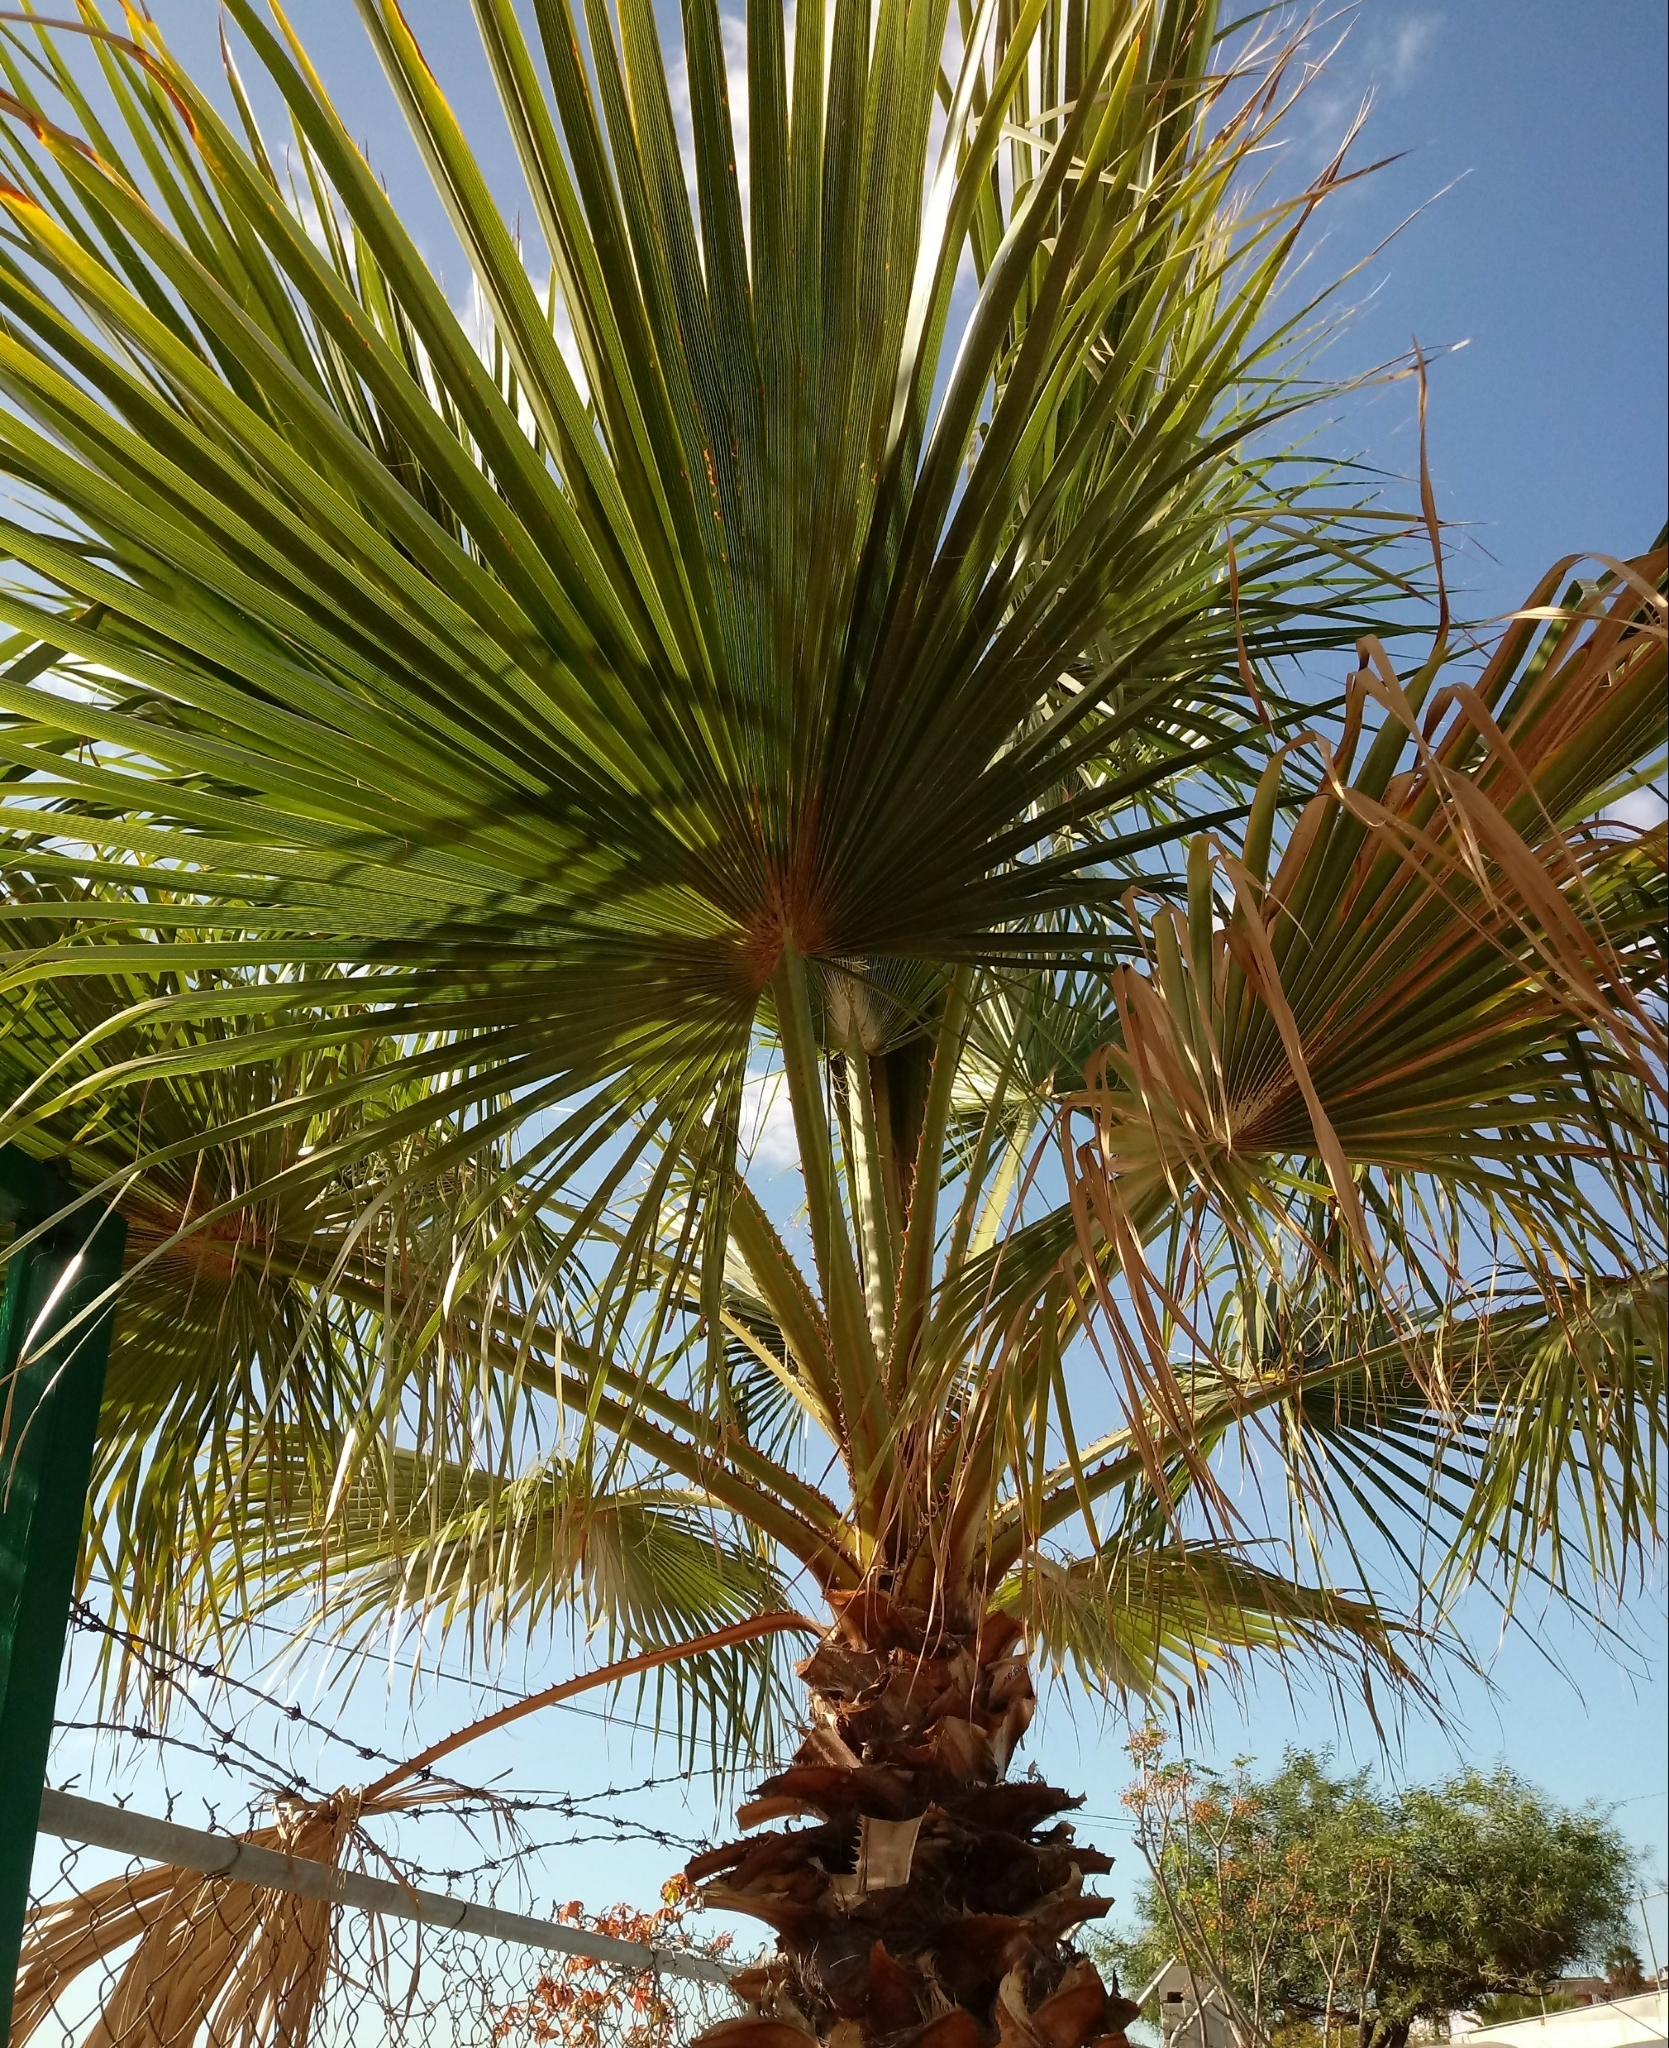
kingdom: Plantae
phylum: Tracheophyta
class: Liliopsida
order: Arecales
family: Arecaceae
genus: Washingtonia
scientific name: Washingtonia robusta
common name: Mexican fan palm
